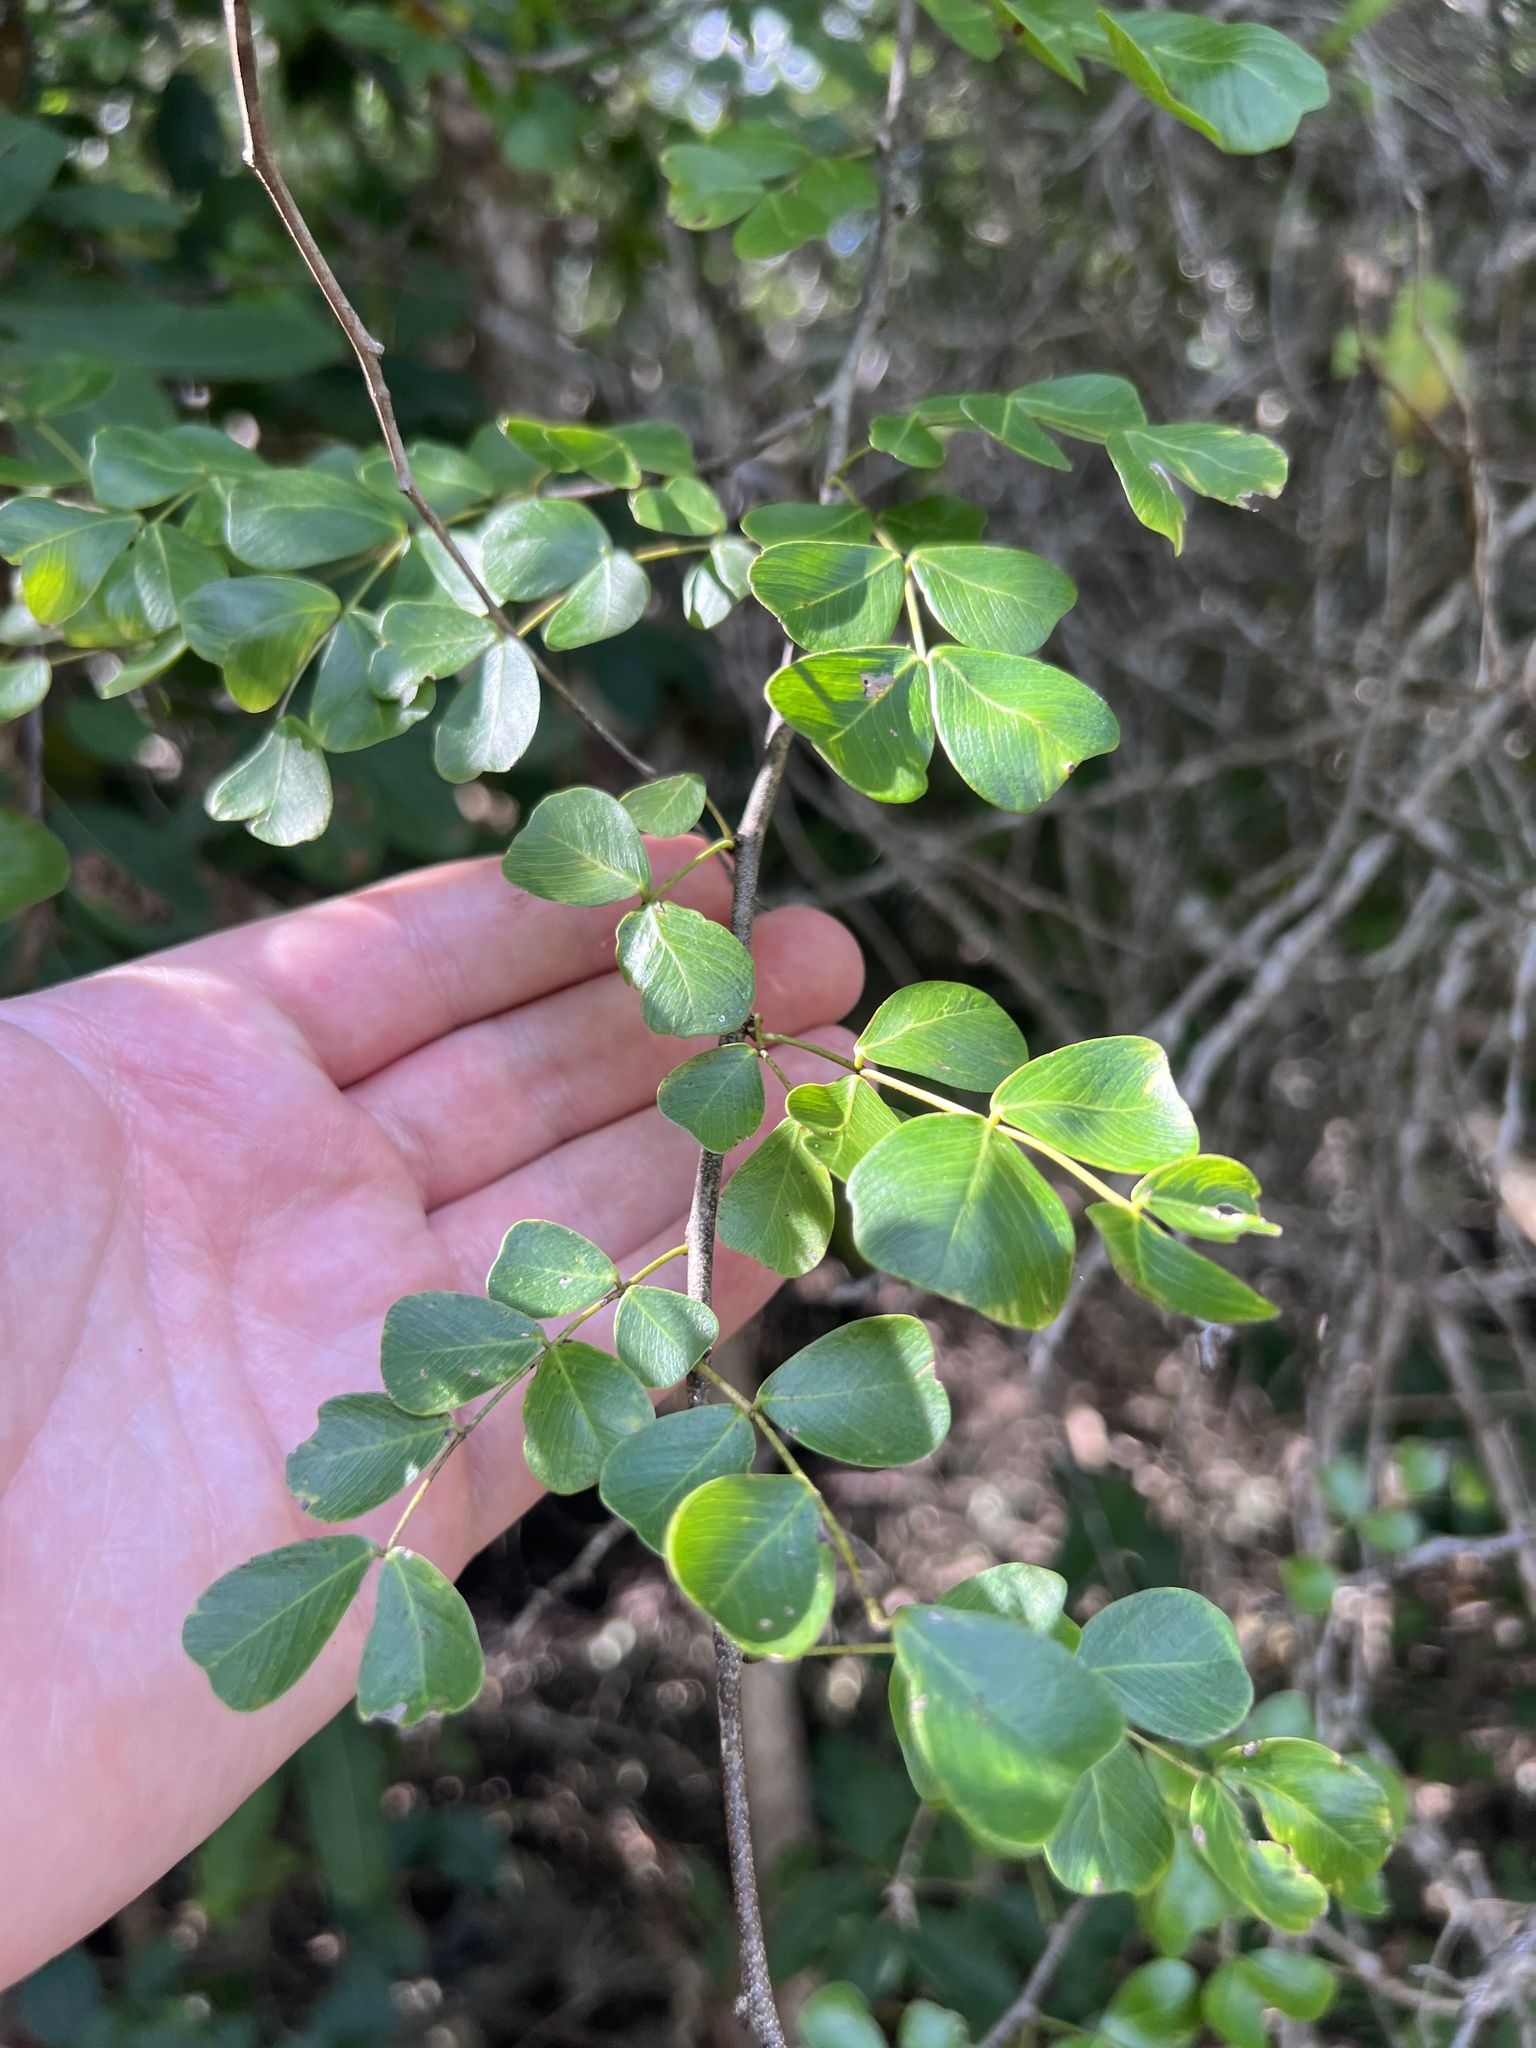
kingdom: Plantae
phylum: Tracheophyta
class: Magnoliopsida
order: Fabales
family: Fabaceae
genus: Haematoxylum
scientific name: Haematoxylum campechianum
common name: Logwood
